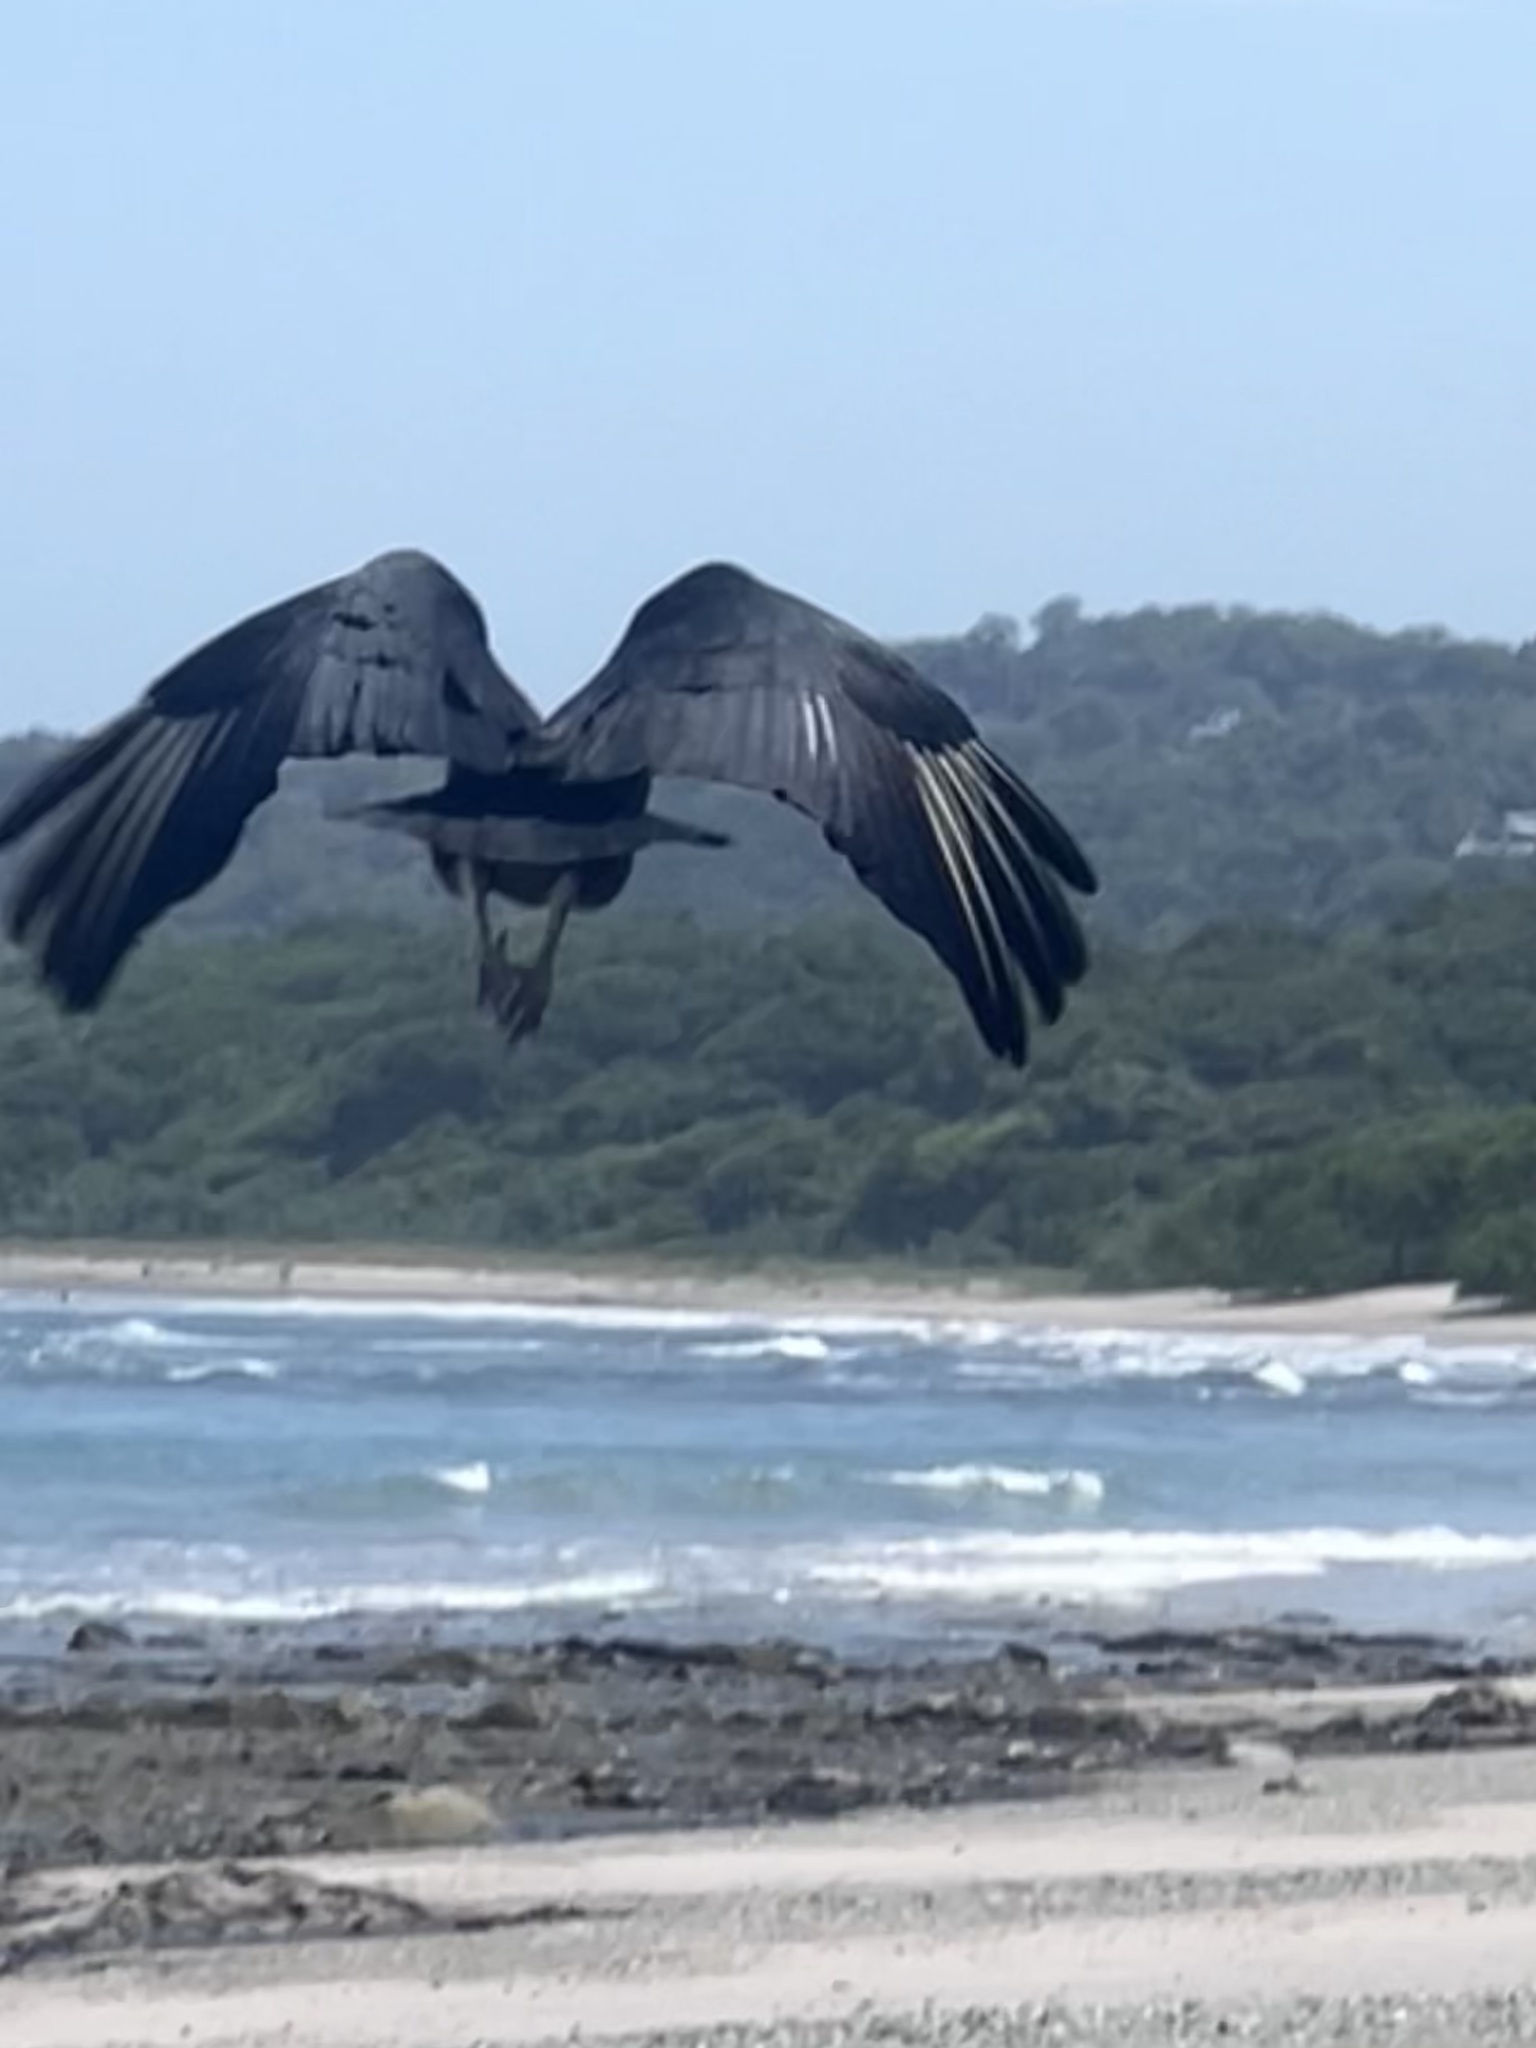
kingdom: Animalia
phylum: Chordata
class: Aves
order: Accipitriformes
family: Cathartidae
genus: Coragyps
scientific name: Coragyps atratus
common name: Black vulture
